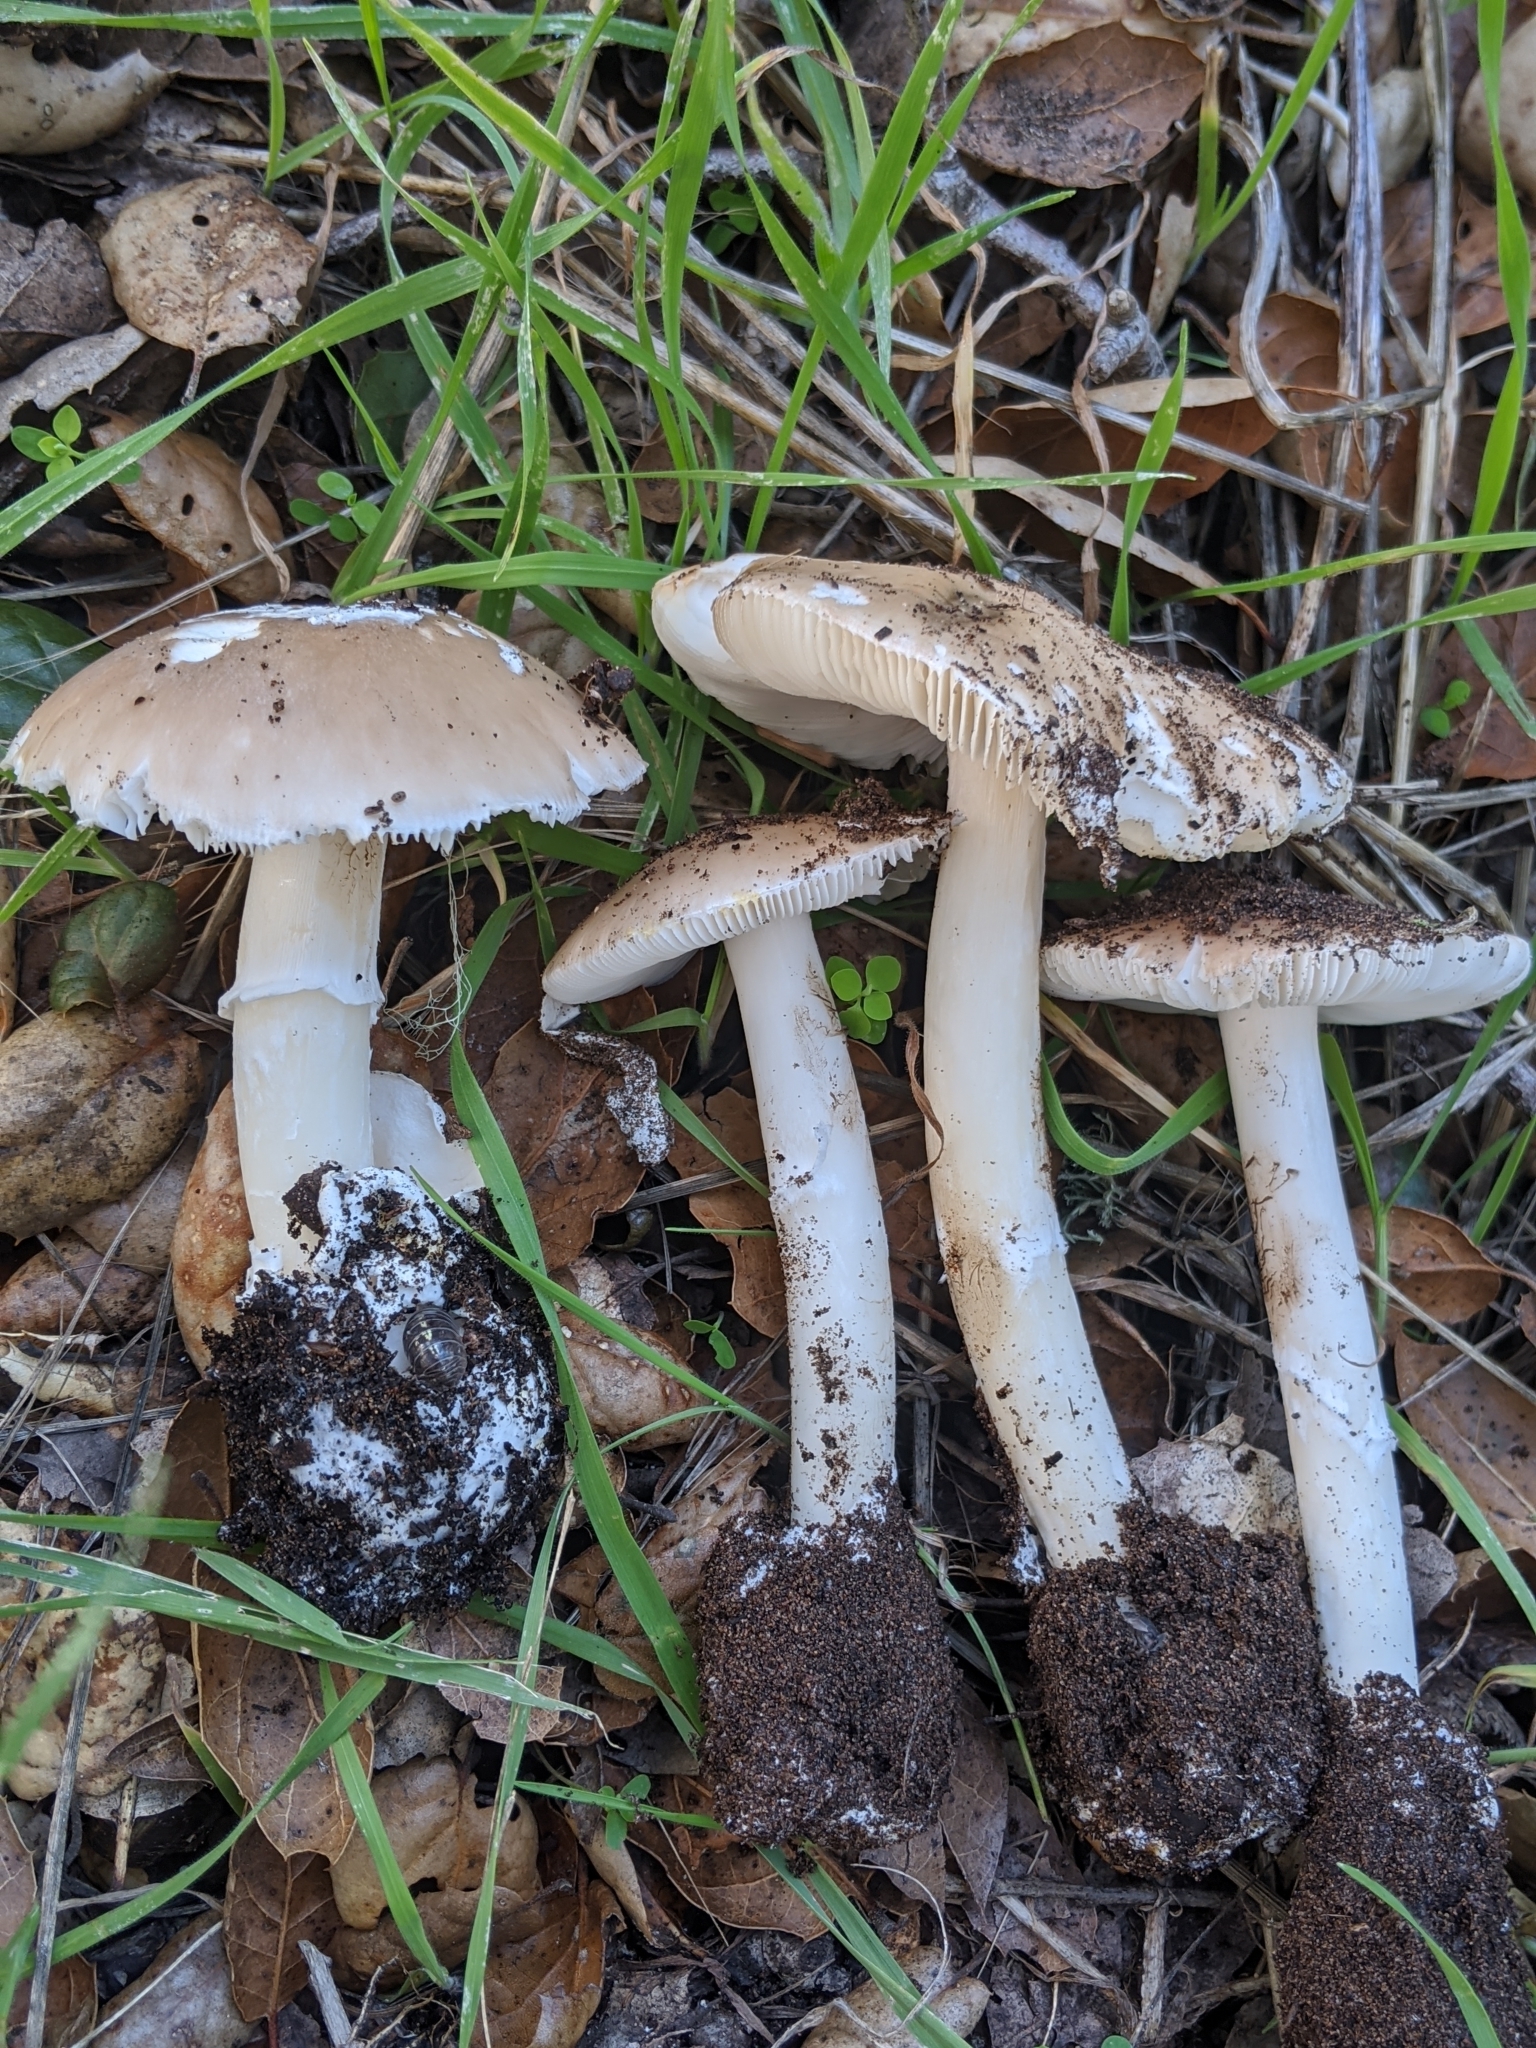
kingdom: Fungi
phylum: Basidiomycota
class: Agaricomycetes
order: Agaricales
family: Amanitaceae
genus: Amanita
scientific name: Amanita calyptratoides
